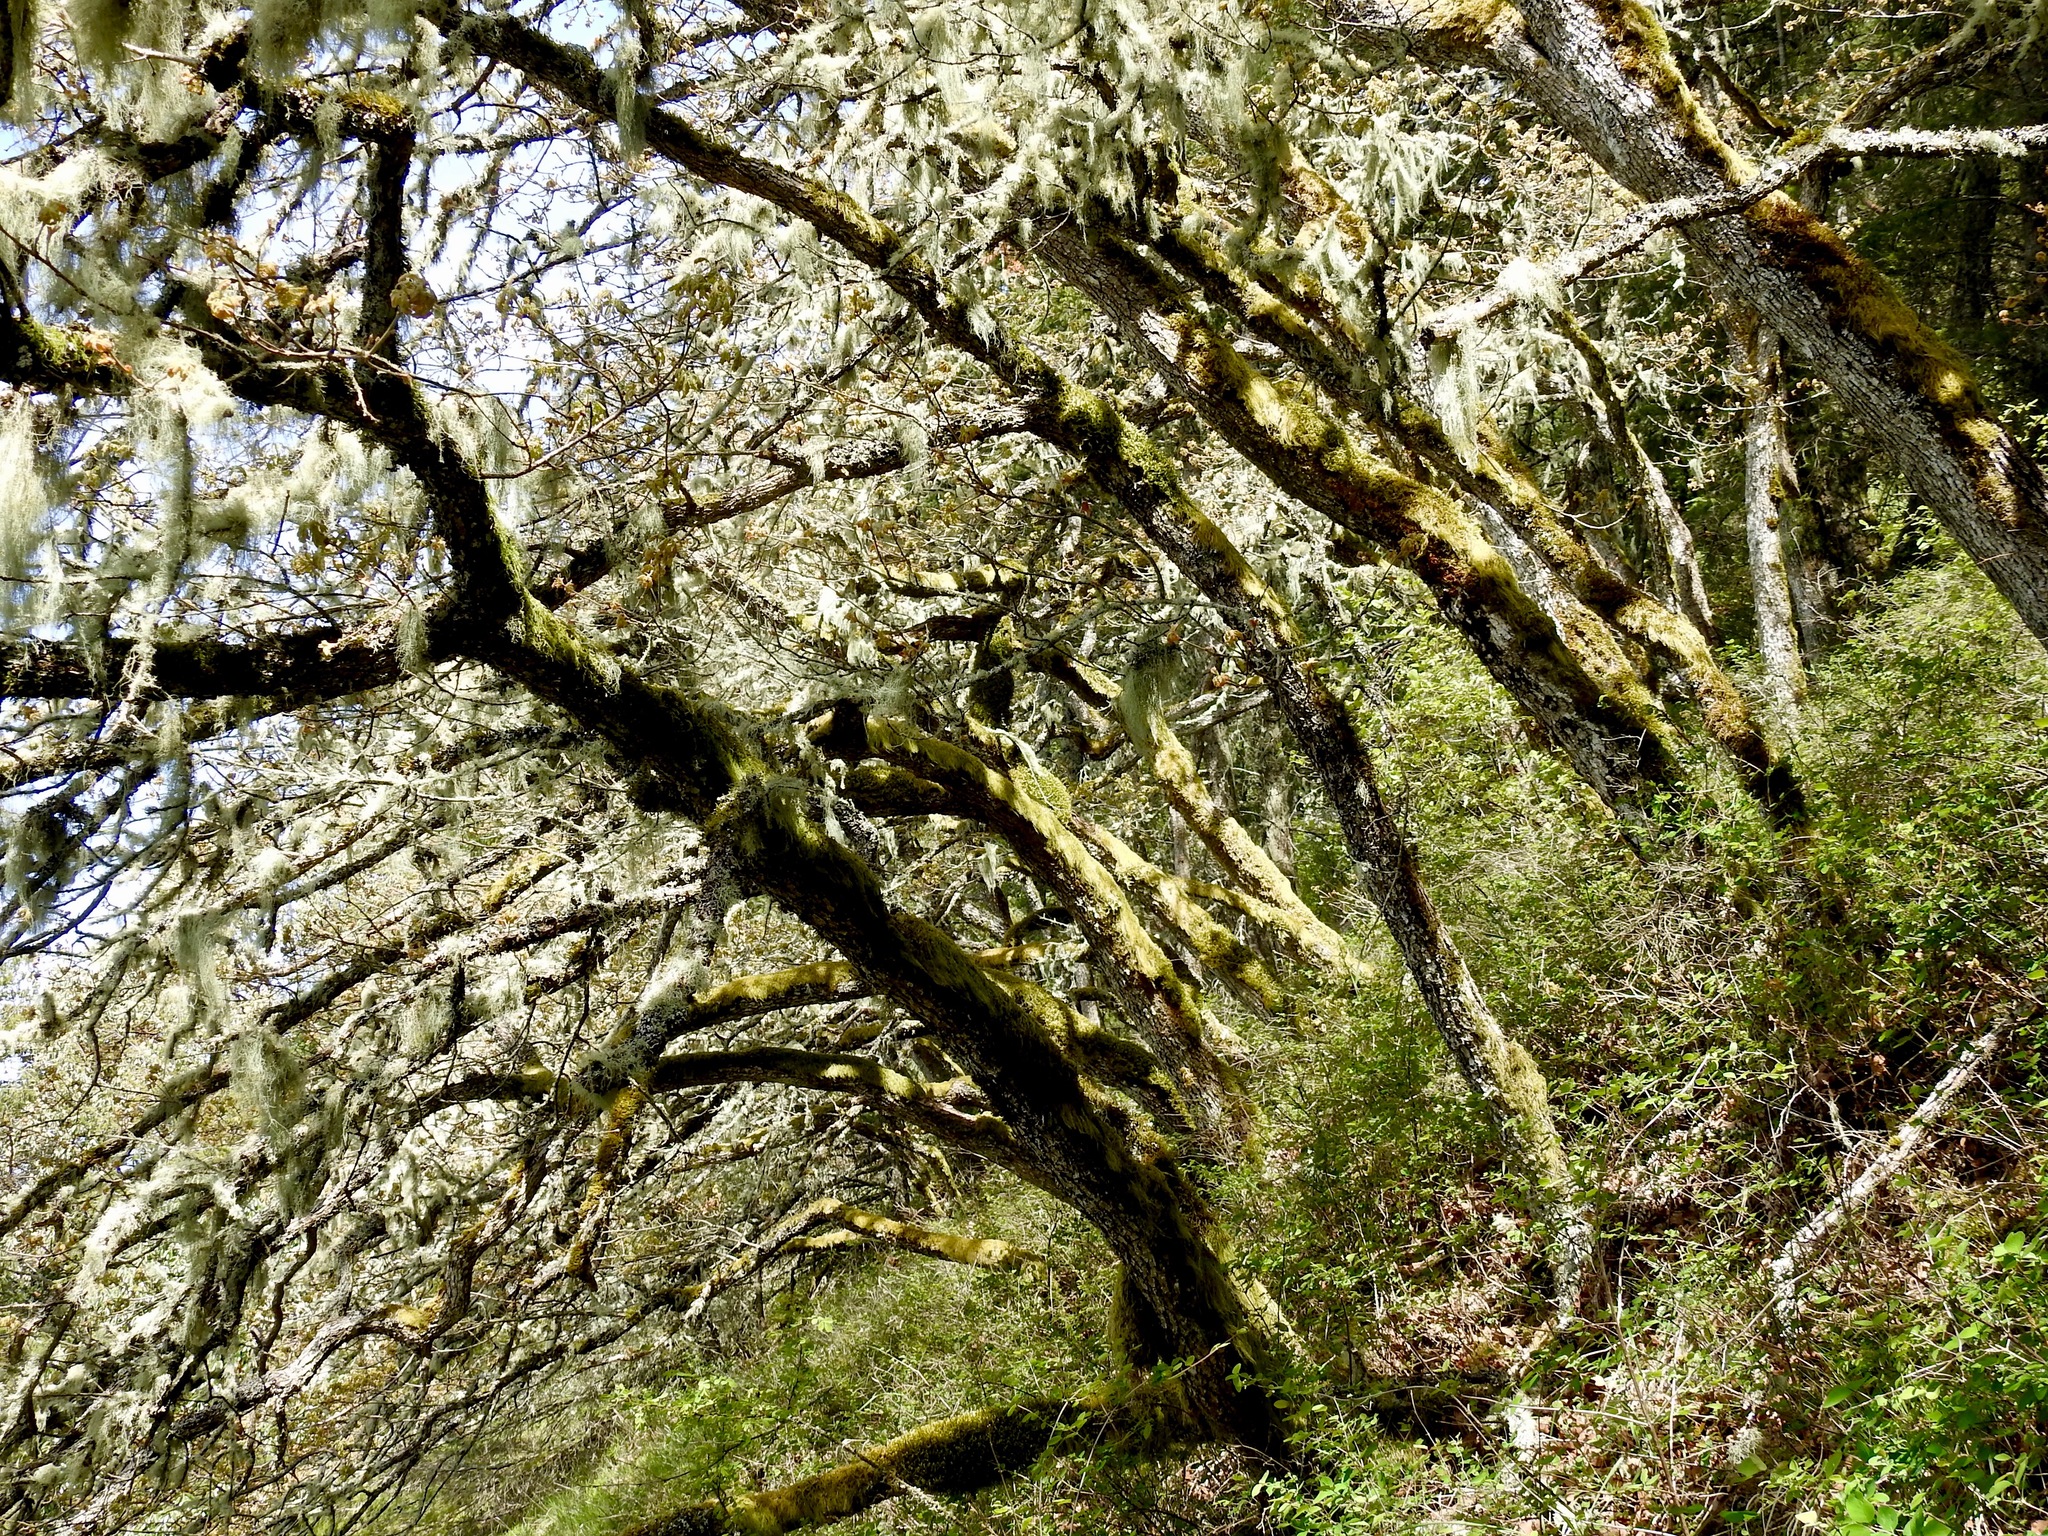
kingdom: Plantae
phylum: Tracheophyta
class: Magnoliopsida
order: Fagales
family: Fagaceae
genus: Quercus
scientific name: Quercus garryana
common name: Garry oak
